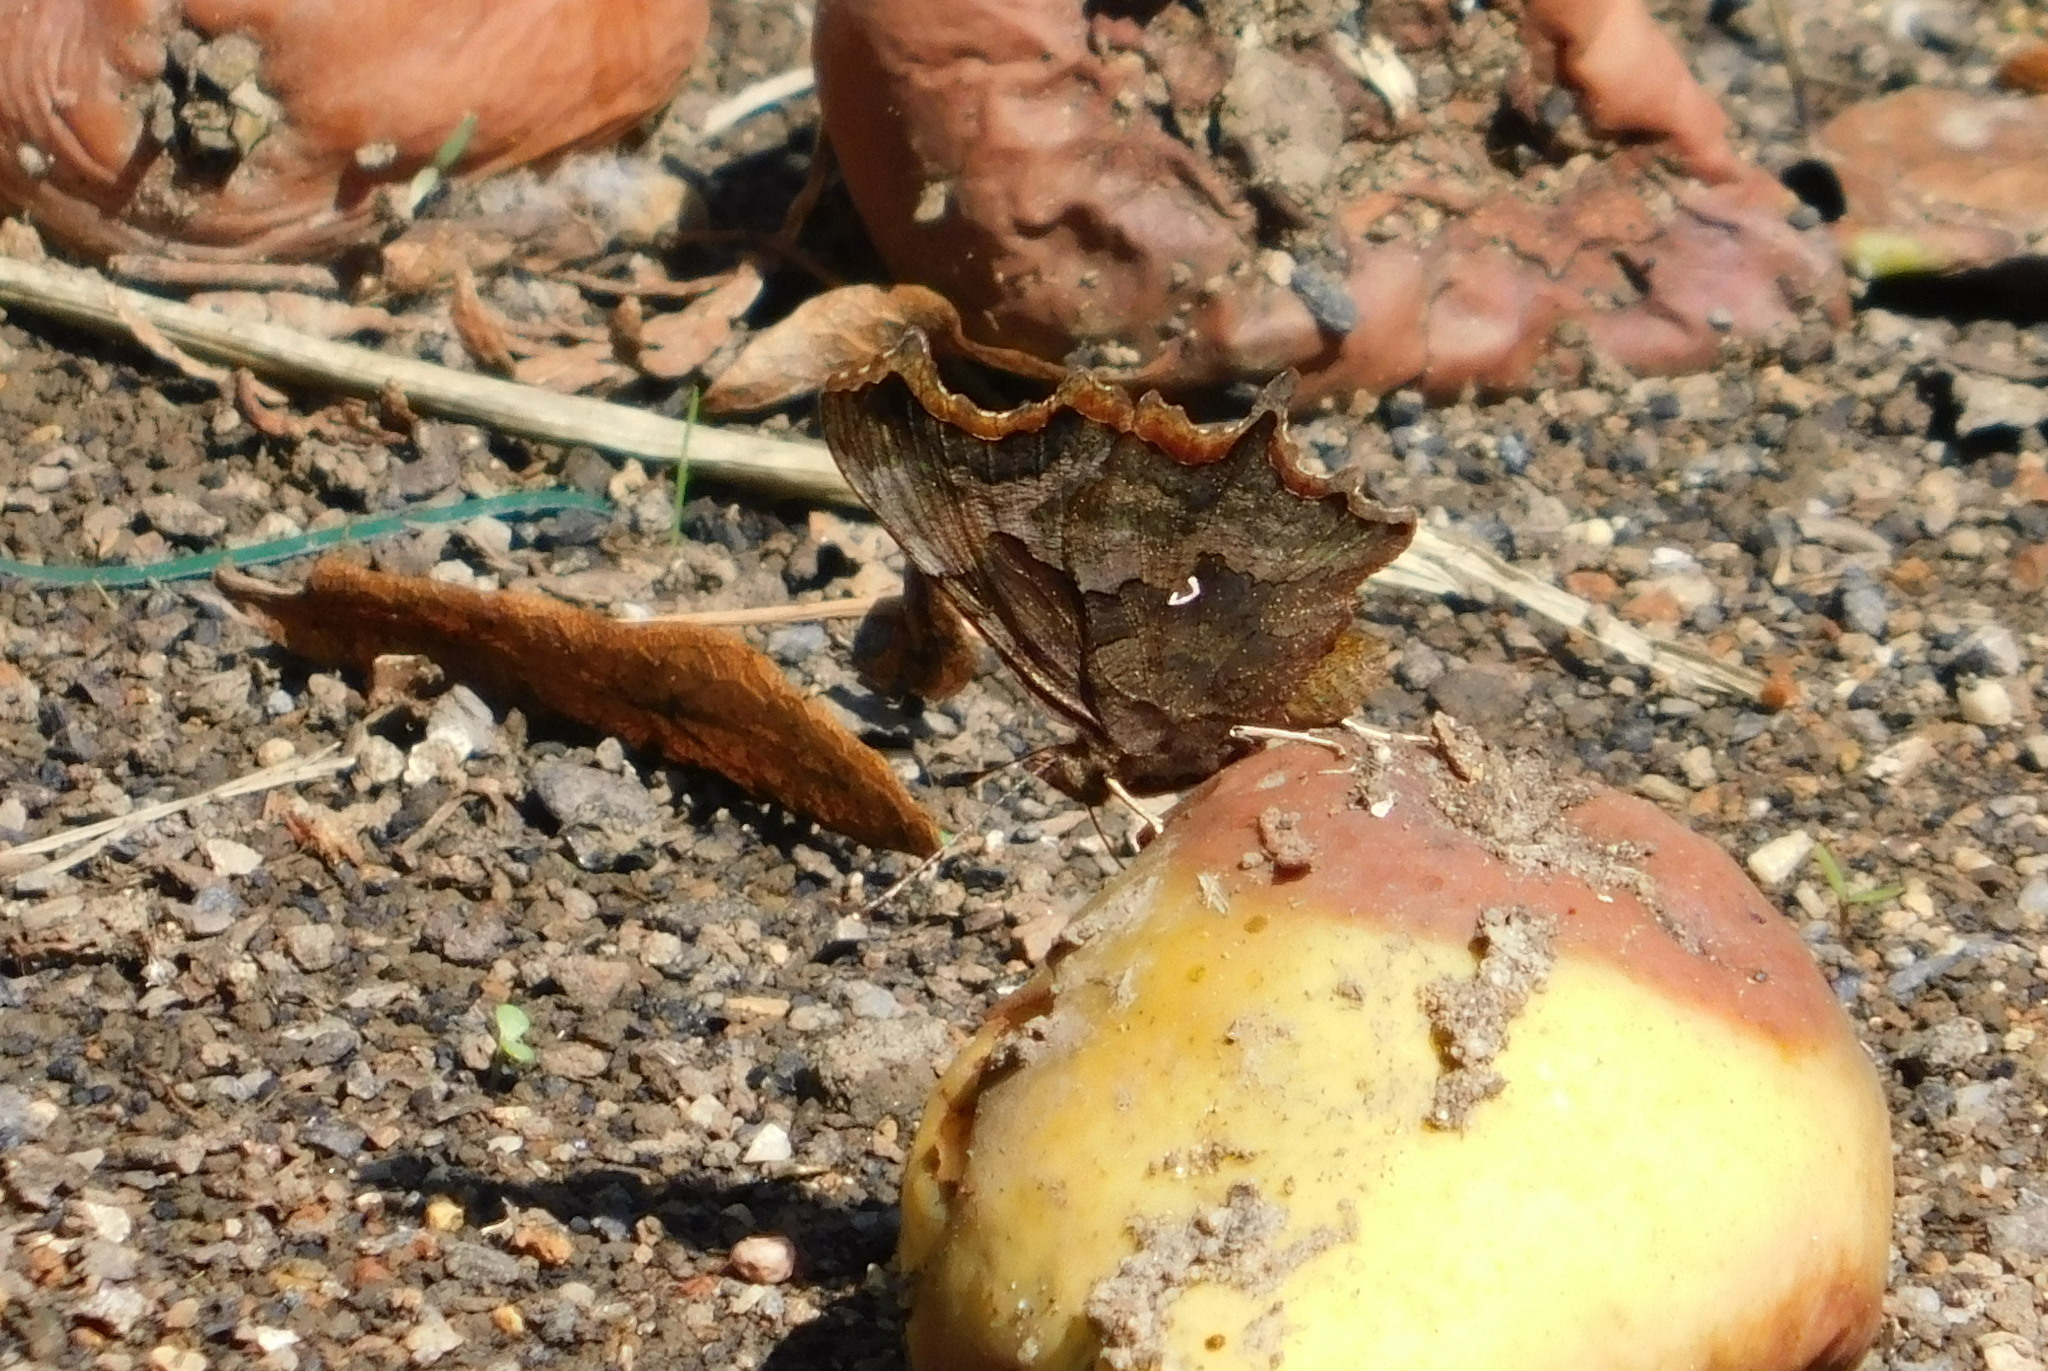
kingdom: Animalia
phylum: Arthropoda
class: Insecta
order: Lepidoptera
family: Nymphalidae
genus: Polygonia
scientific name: Polygonia c-album
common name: Comma
